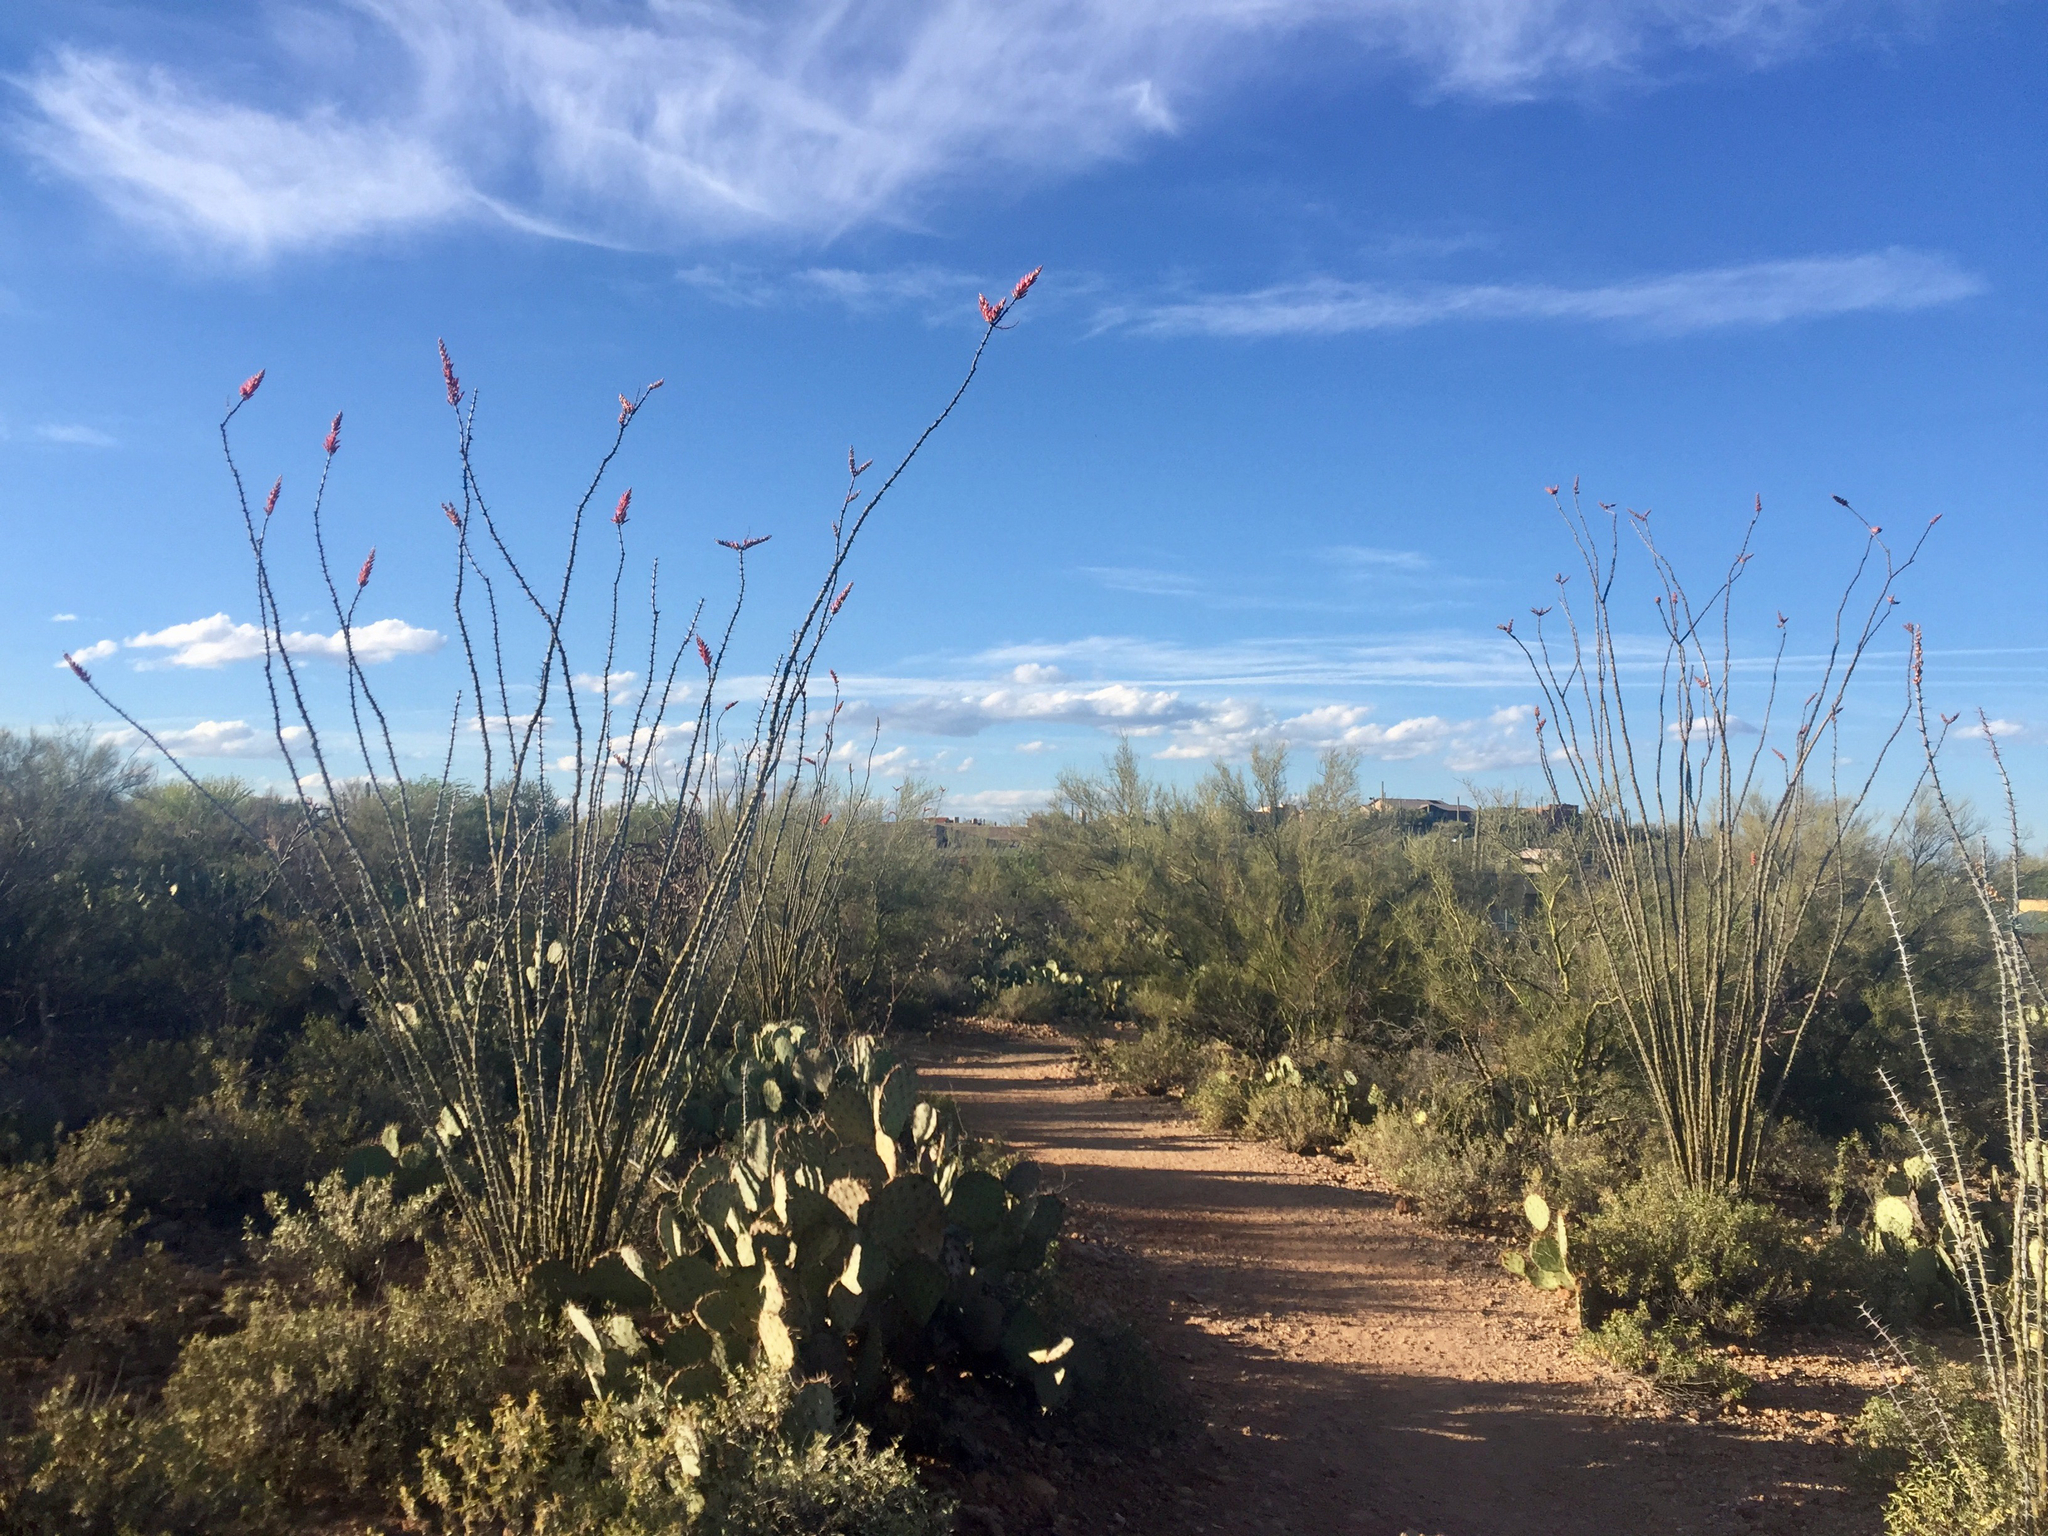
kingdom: Plantae
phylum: Tracheophyta
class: Magnoliopsida
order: Ericales
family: Fouquieriaceae
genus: Fouquieria
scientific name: Fouquieria splendens
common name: Vine-cactus
